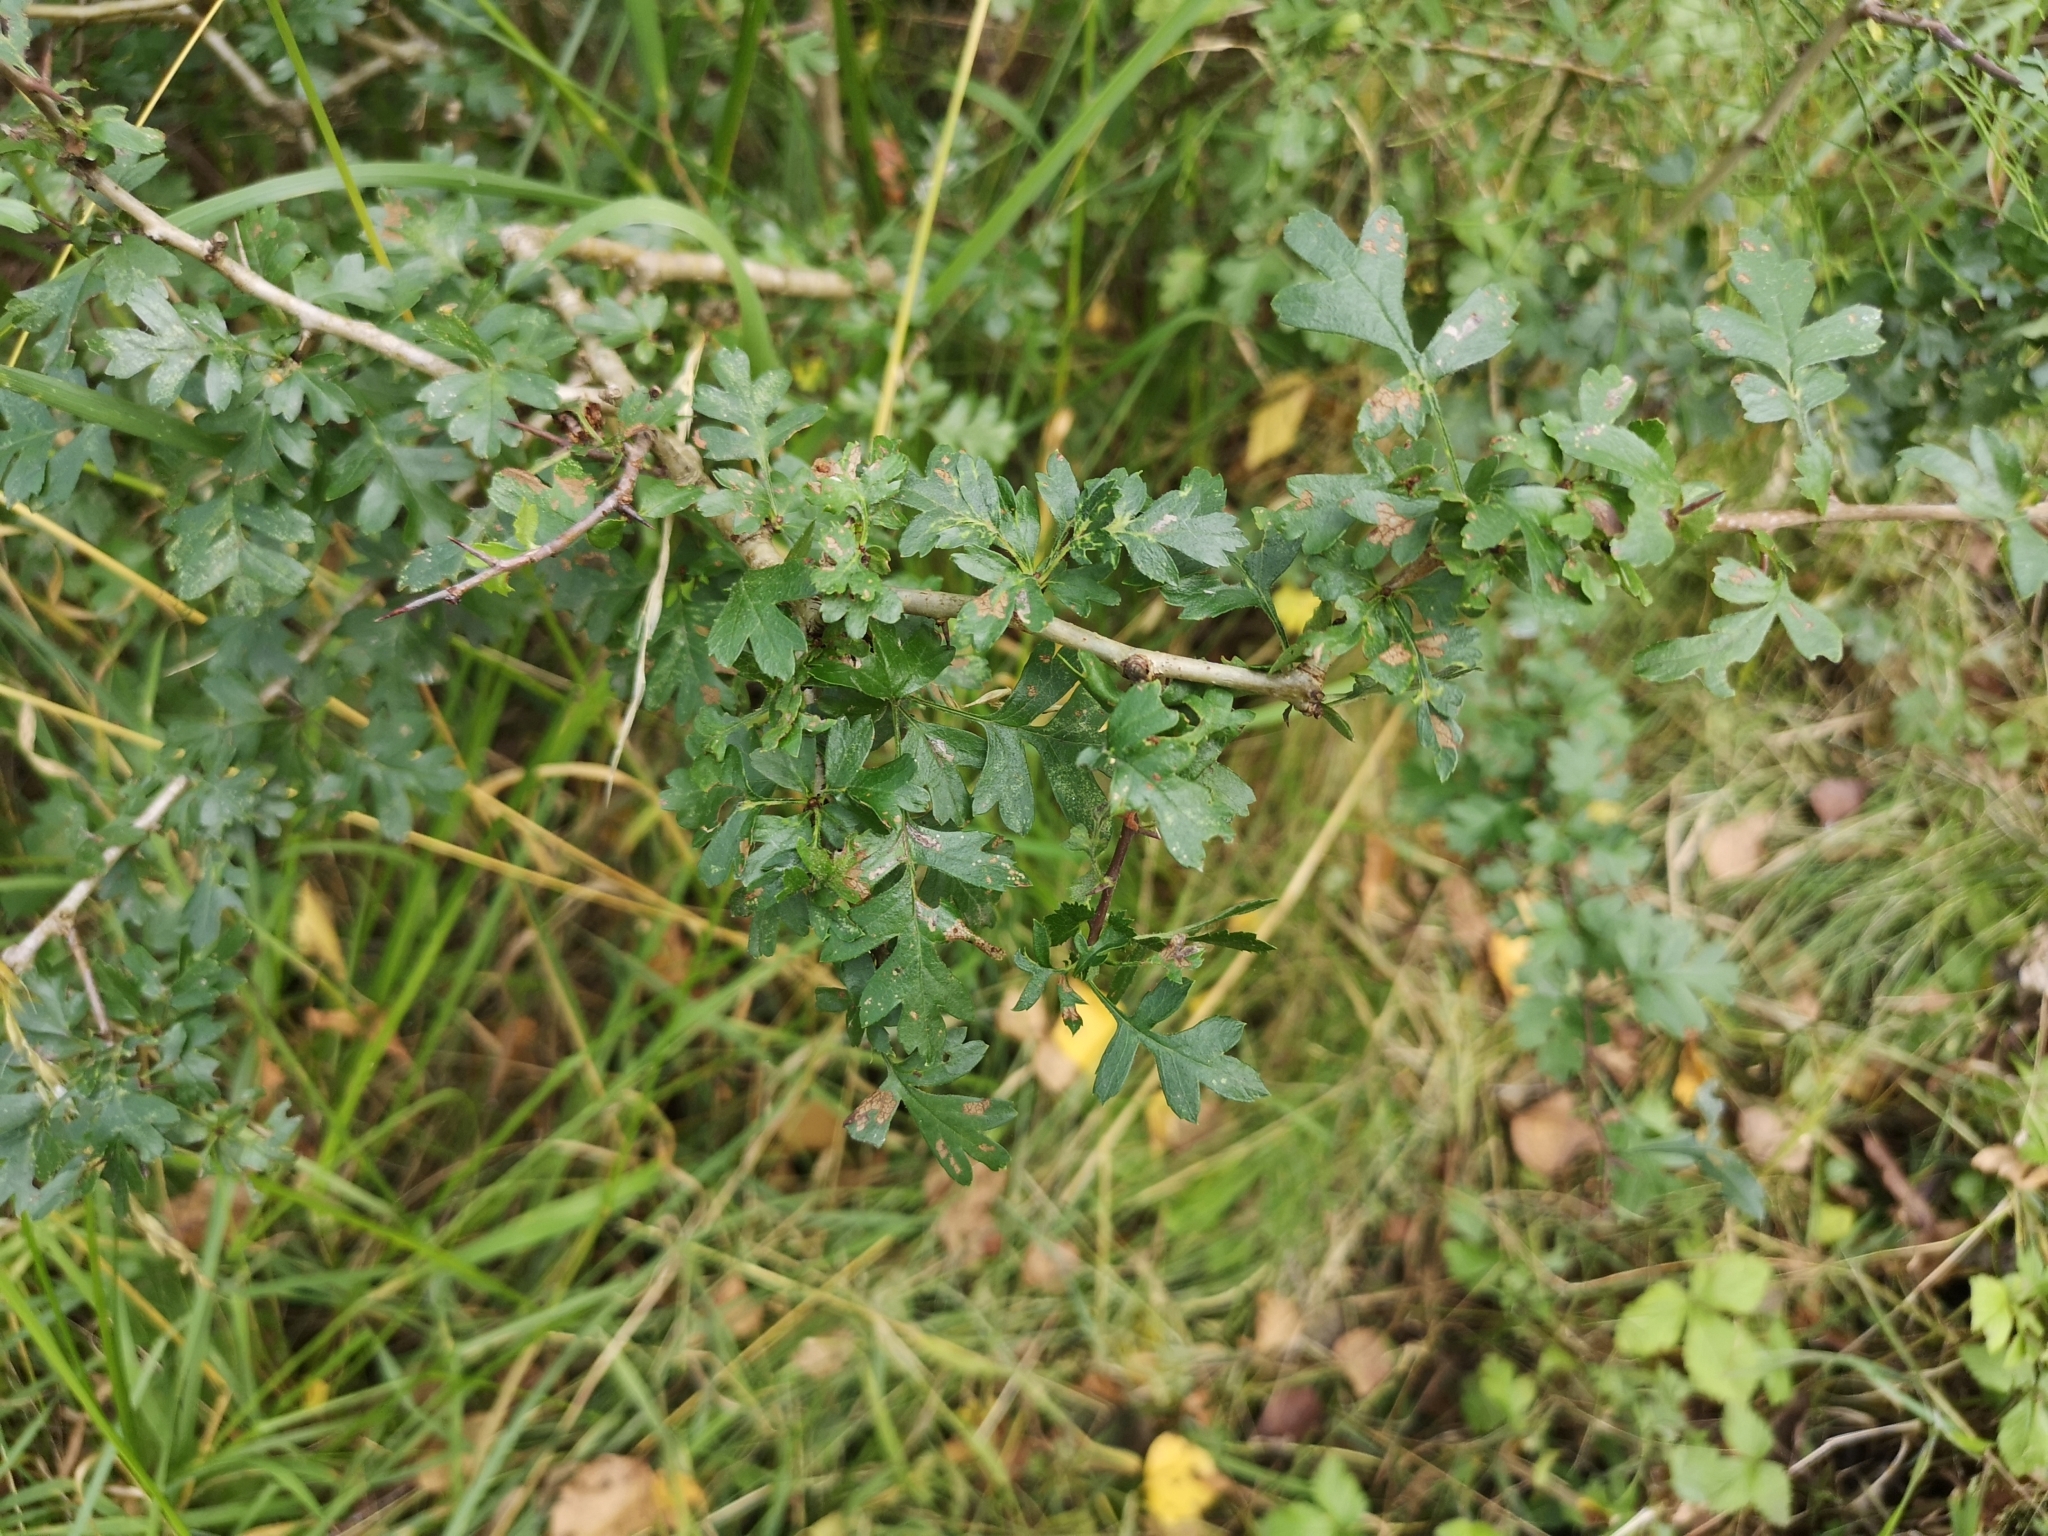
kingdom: Plantae
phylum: Tracheophyta
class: Magnoliopsida
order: Rosales
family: Rosaceae
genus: Crataegus
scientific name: Crataegus monogyna
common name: Hawthorn
